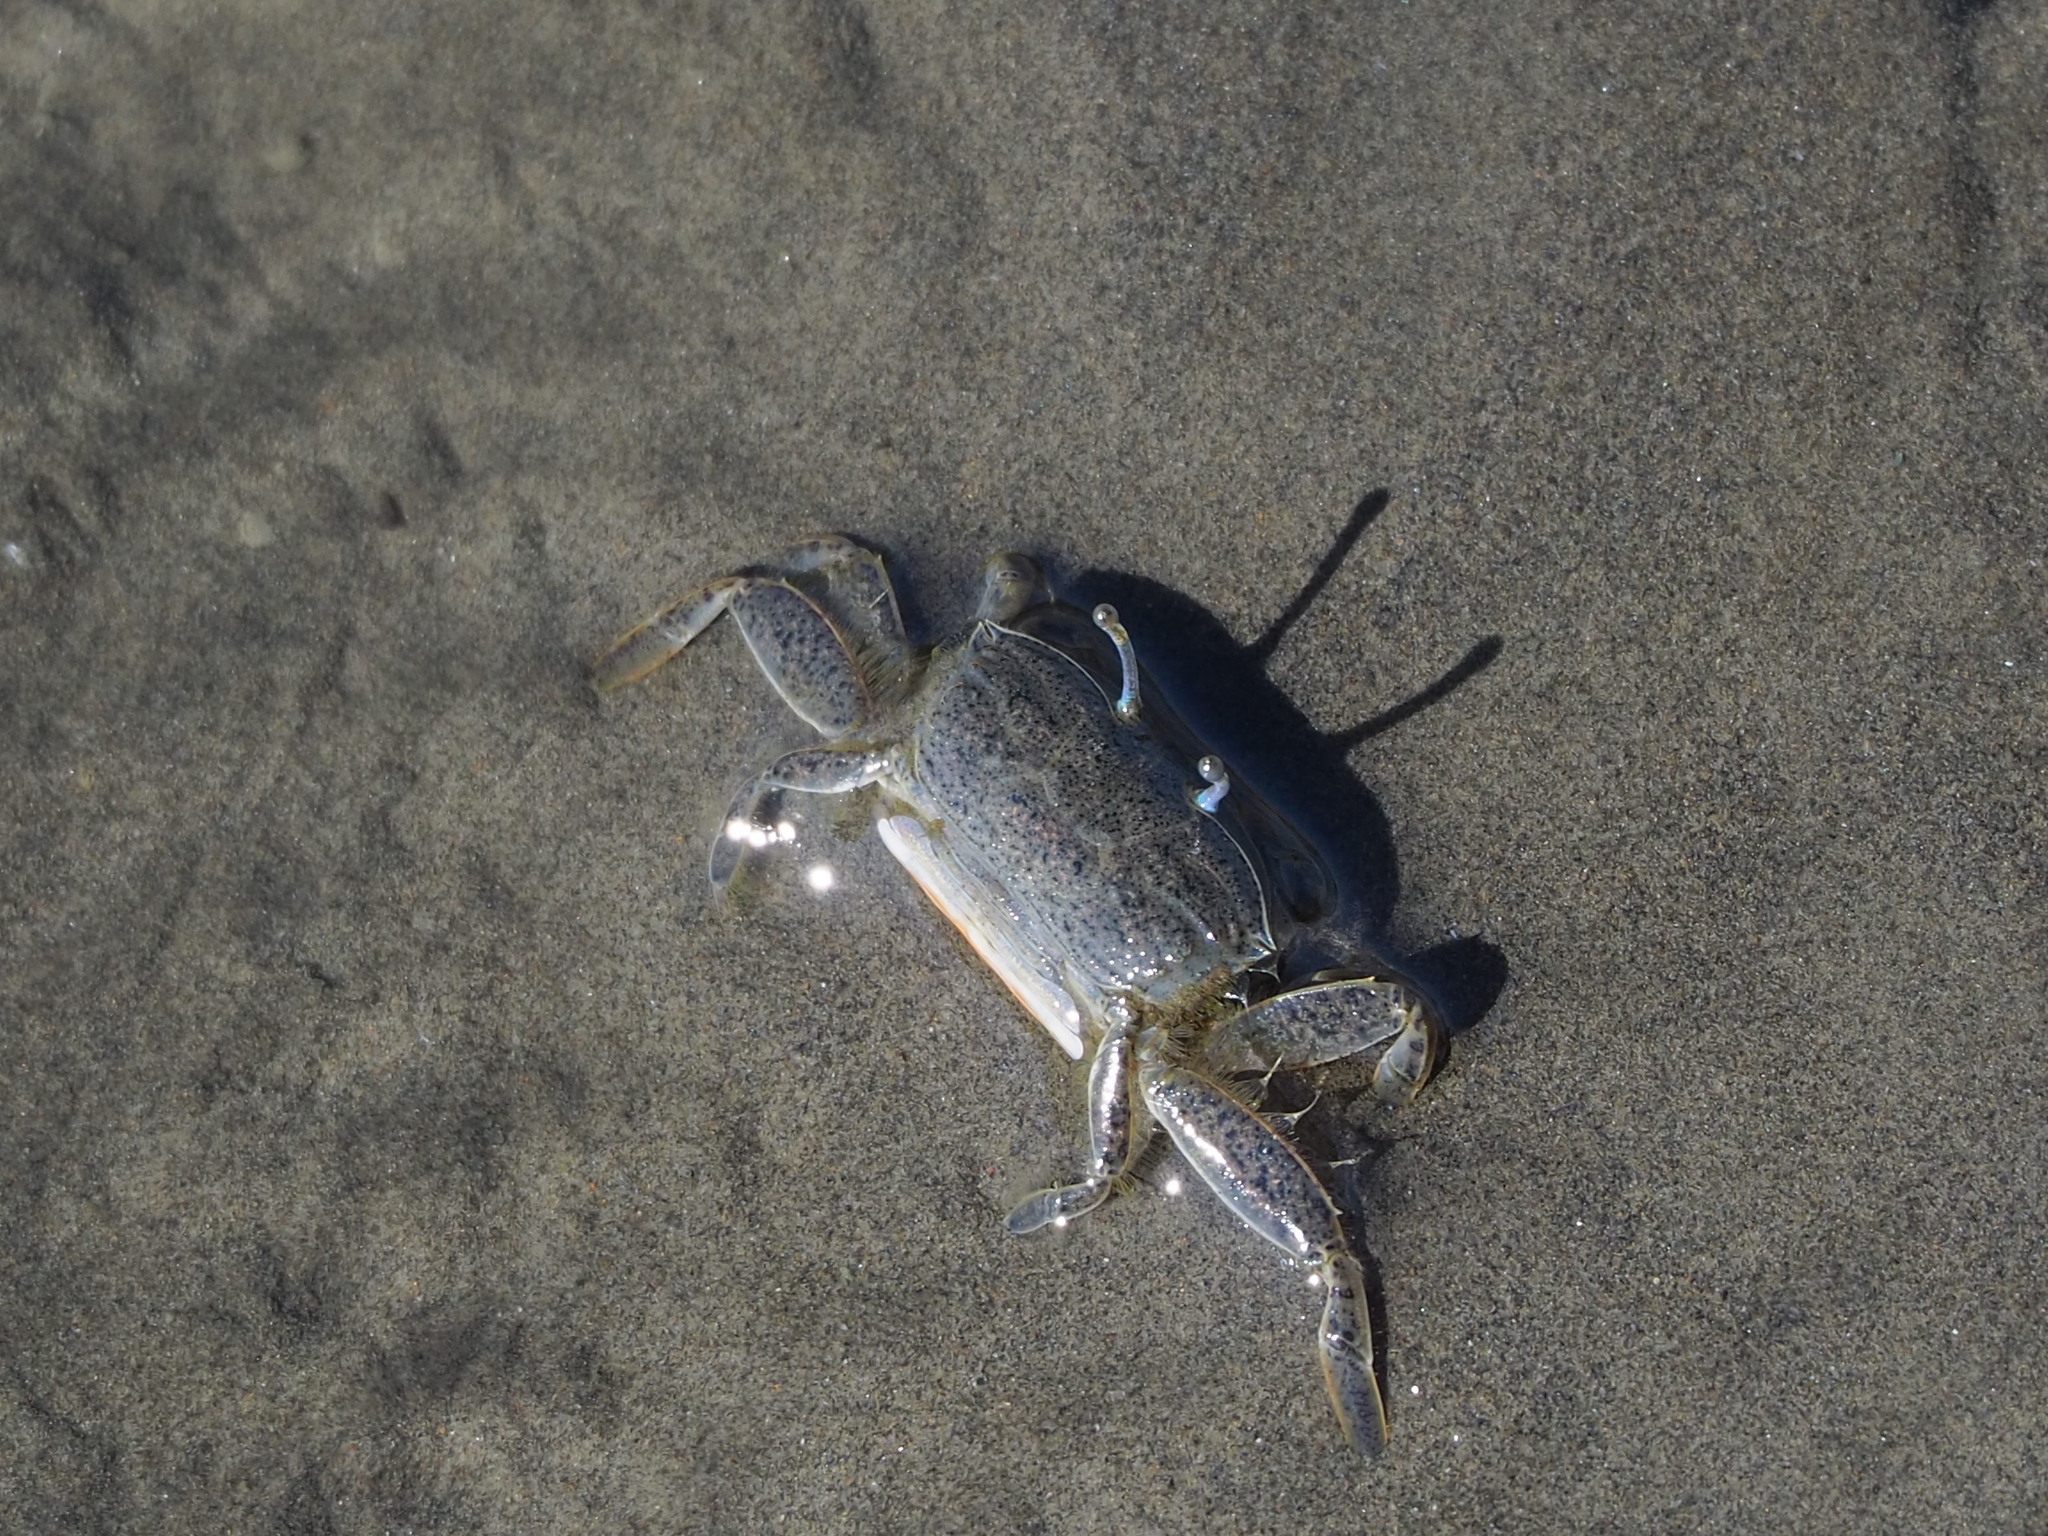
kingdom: Animalia
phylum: Arthropoda
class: Malacostraca
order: Decapoda
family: Macrophthalmidae
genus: Macrophthalmus
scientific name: Macrophthalmus abbreviatus
